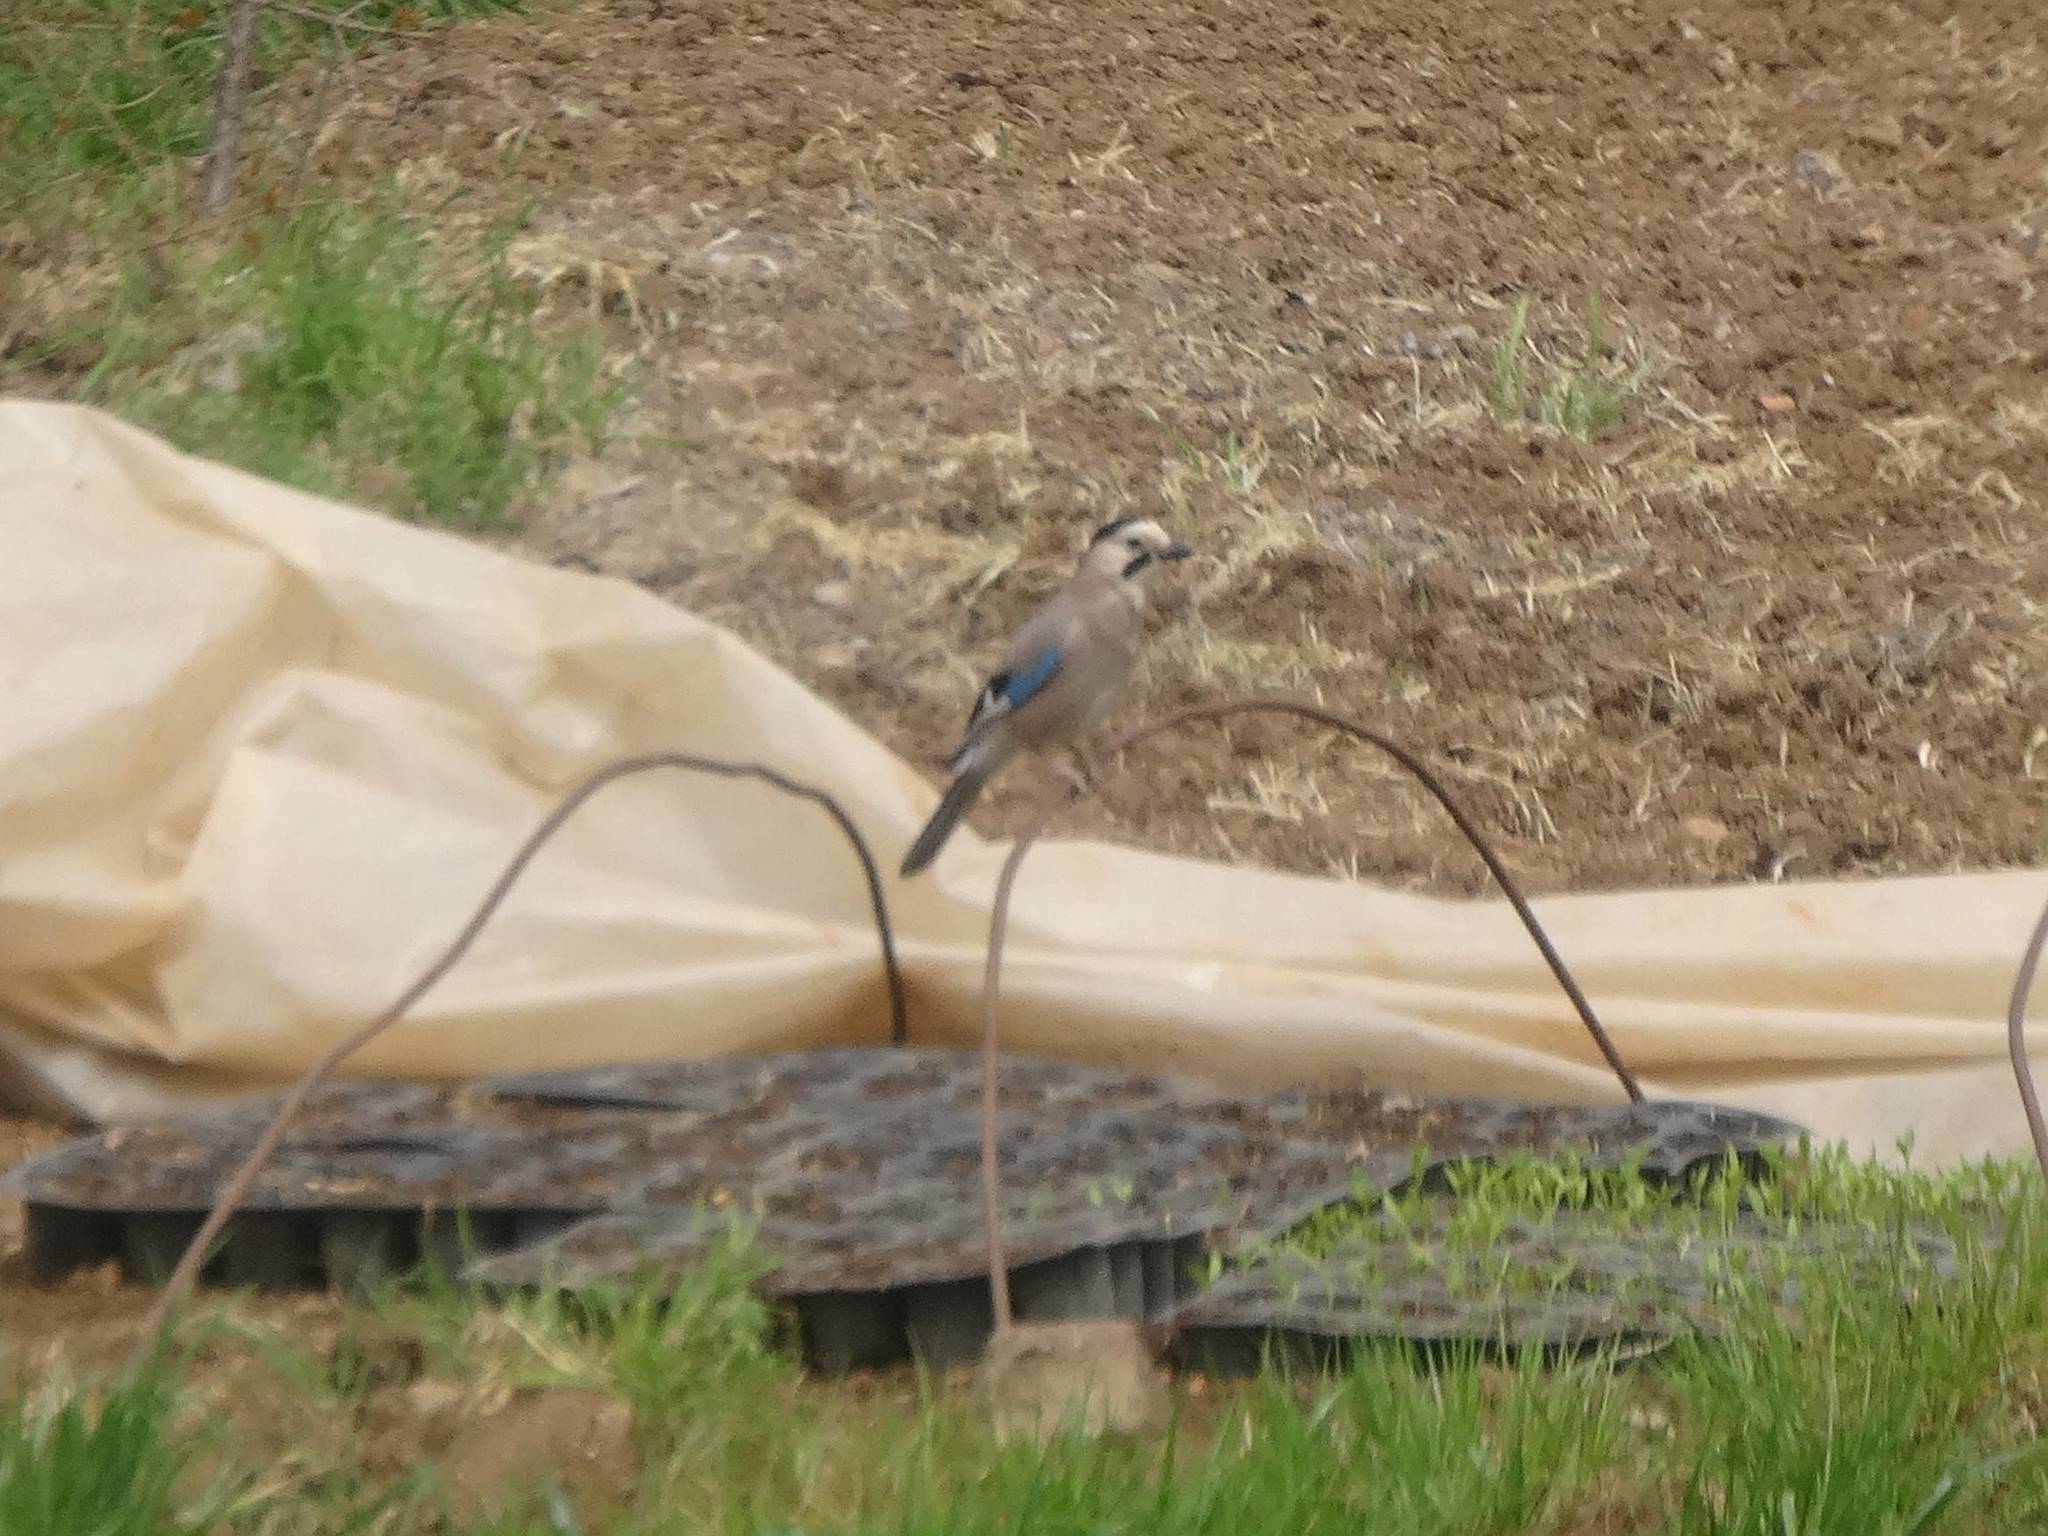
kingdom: Animalia
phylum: Chordata
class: Aves
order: Passeriformes
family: Corvidae
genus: Garrulus
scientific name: Garrulus glandarius
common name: Eurasian jay
